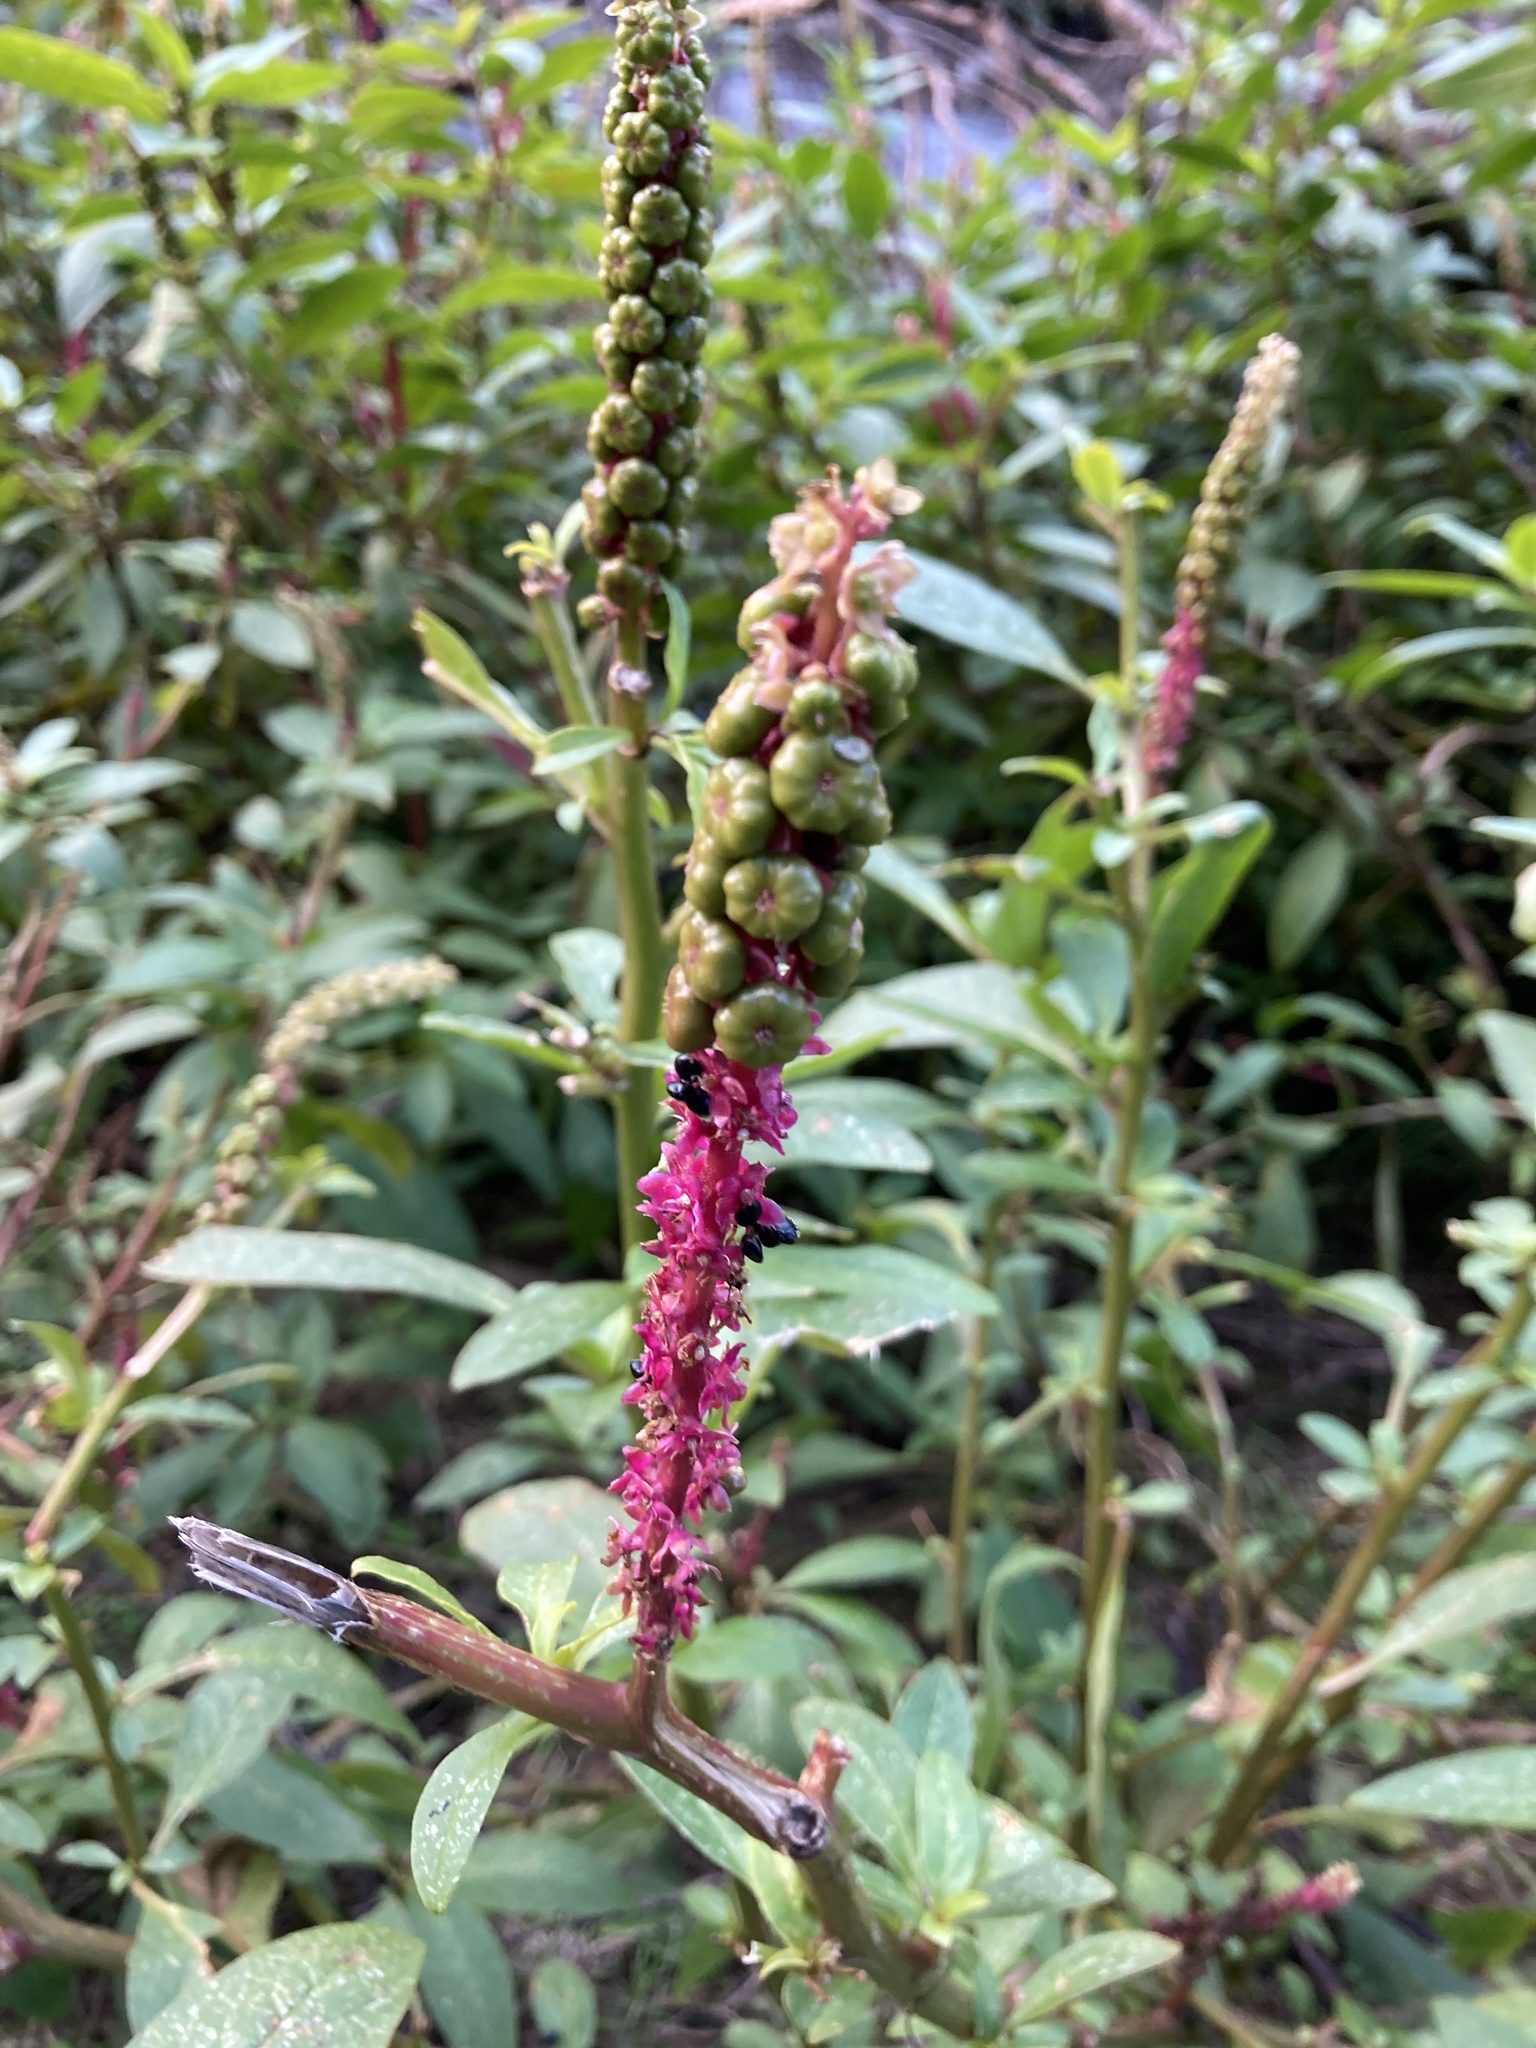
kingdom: Plantae
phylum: Tracheophyta
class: Magnoliopsida
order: Caryophyllales
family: Phytolaccaceae
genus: Phytolacca
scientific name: Phytolacca icosandra
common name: Button pokeweed
